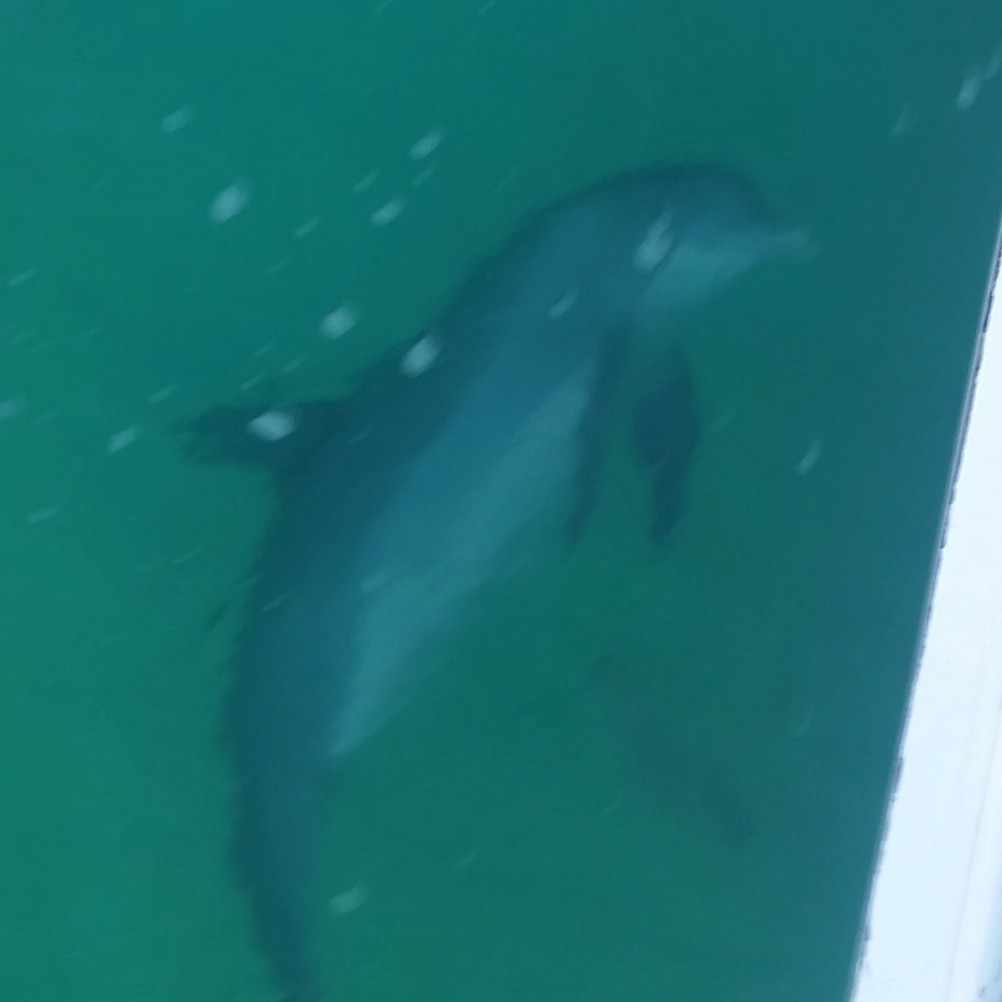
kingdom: Animalia
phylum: Chordata
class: Mammalia
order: Cetacea
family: Delphinidae
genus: Tursiops
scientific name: Tursiops truncatus
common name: Bottlenose dolphin
